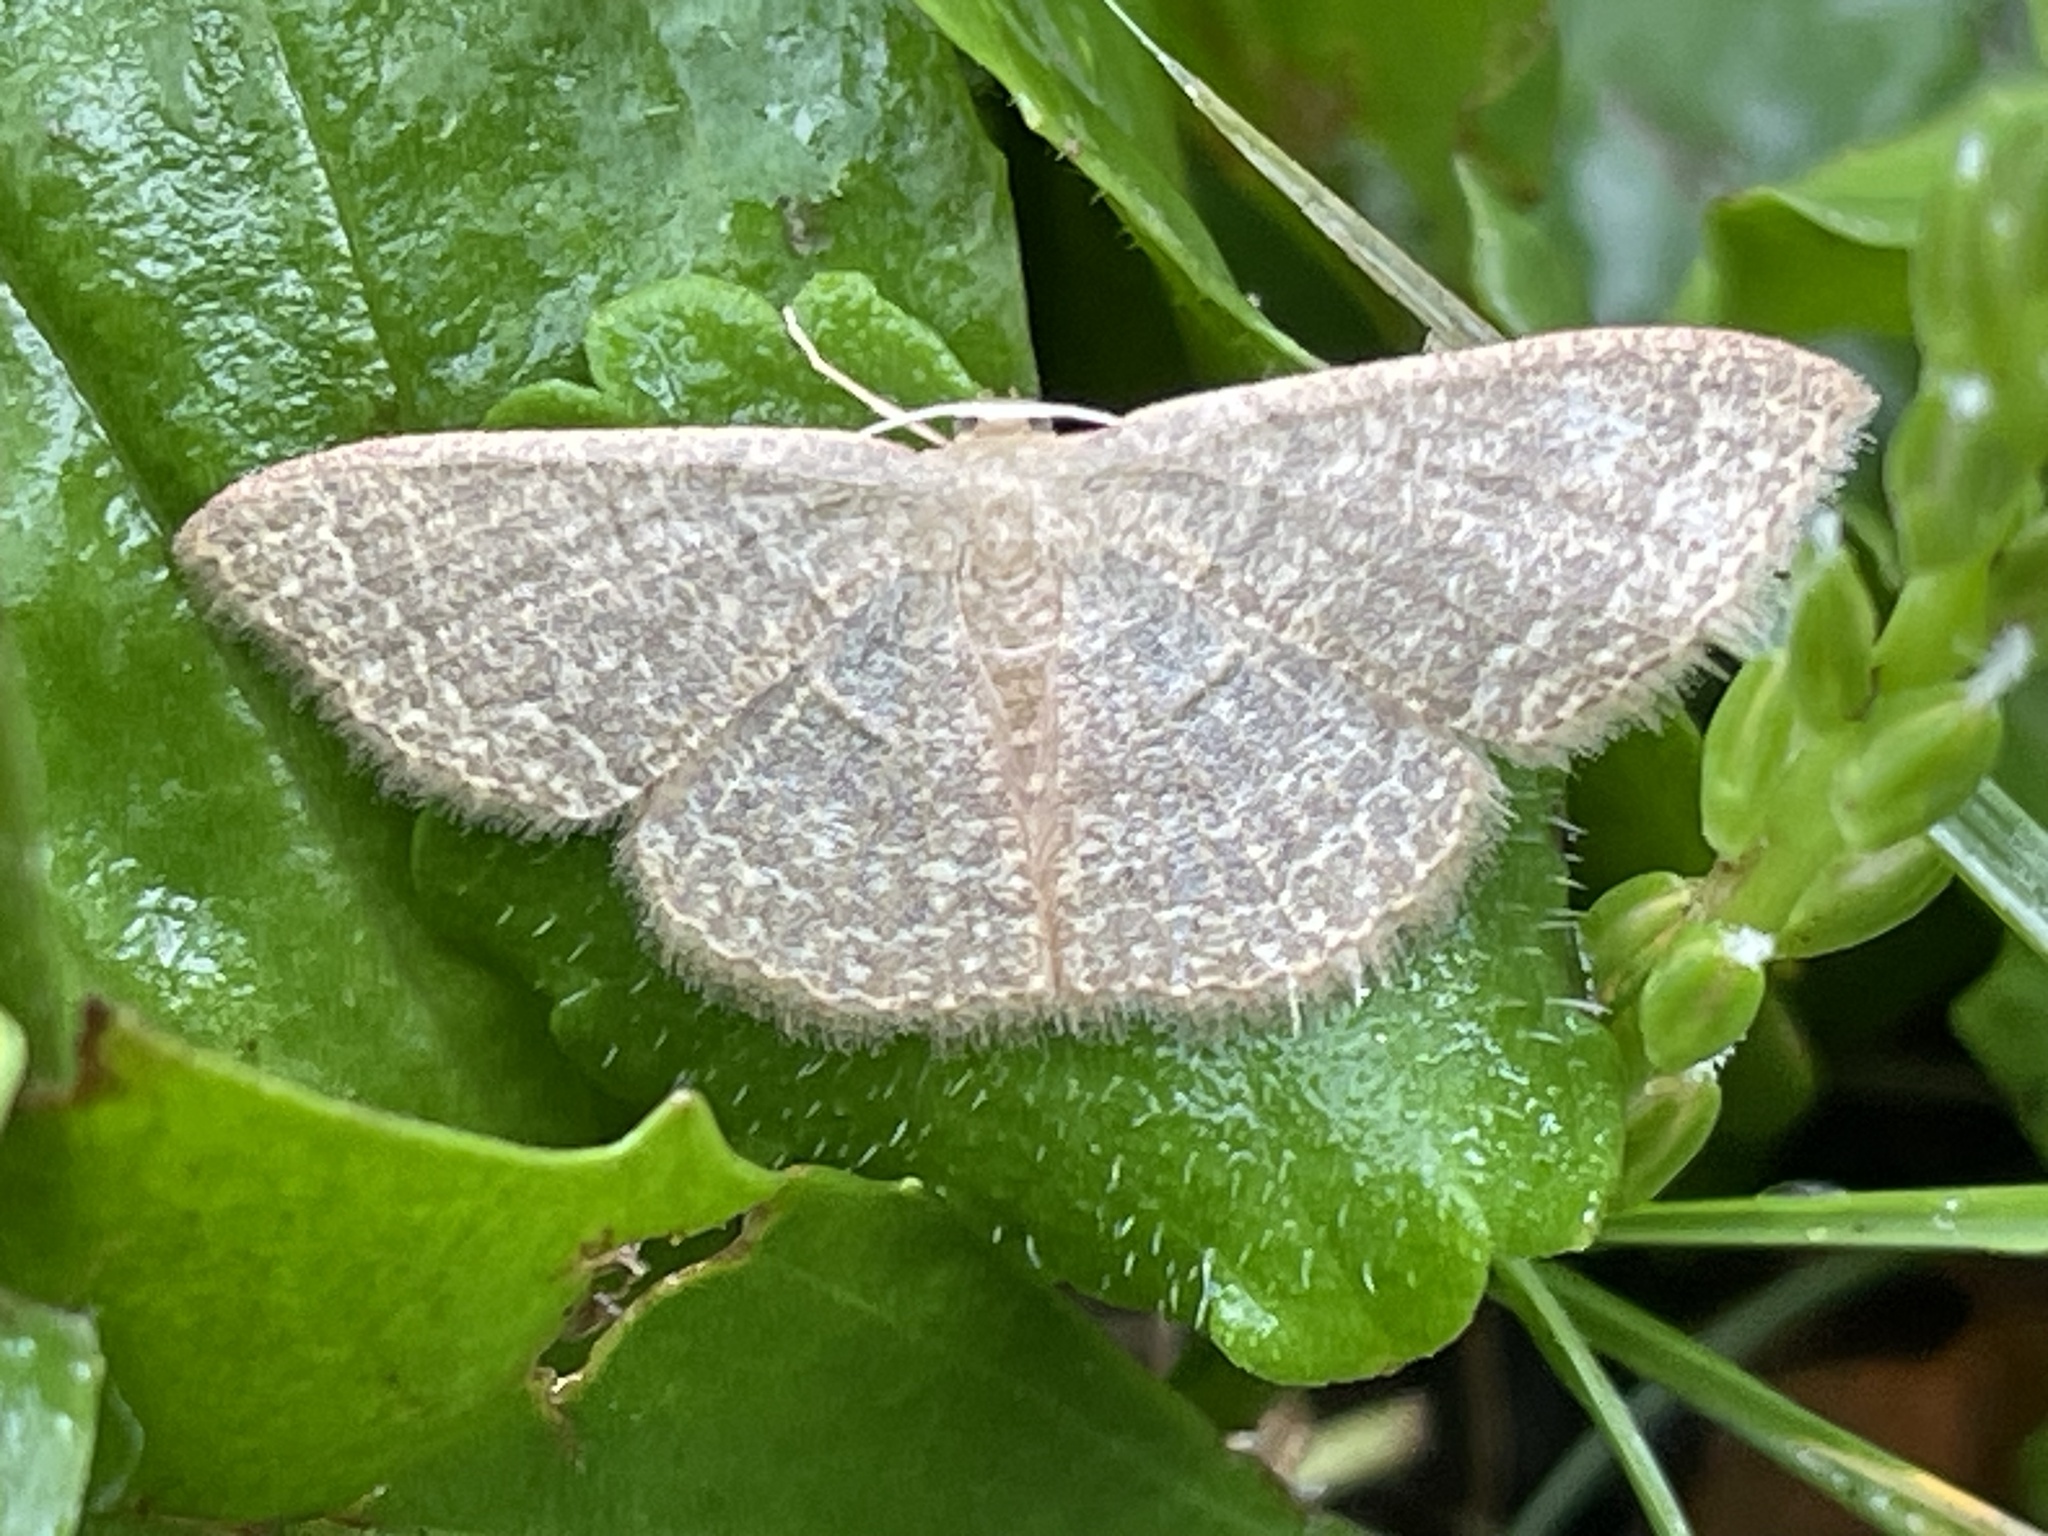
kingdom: Animalia
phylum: Arthropoda
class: Insecta
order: Lepidoptera
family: Geometridae
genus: Pleuroprucha
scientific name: Pleuroprucha insulsaria
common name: Common tan wave
